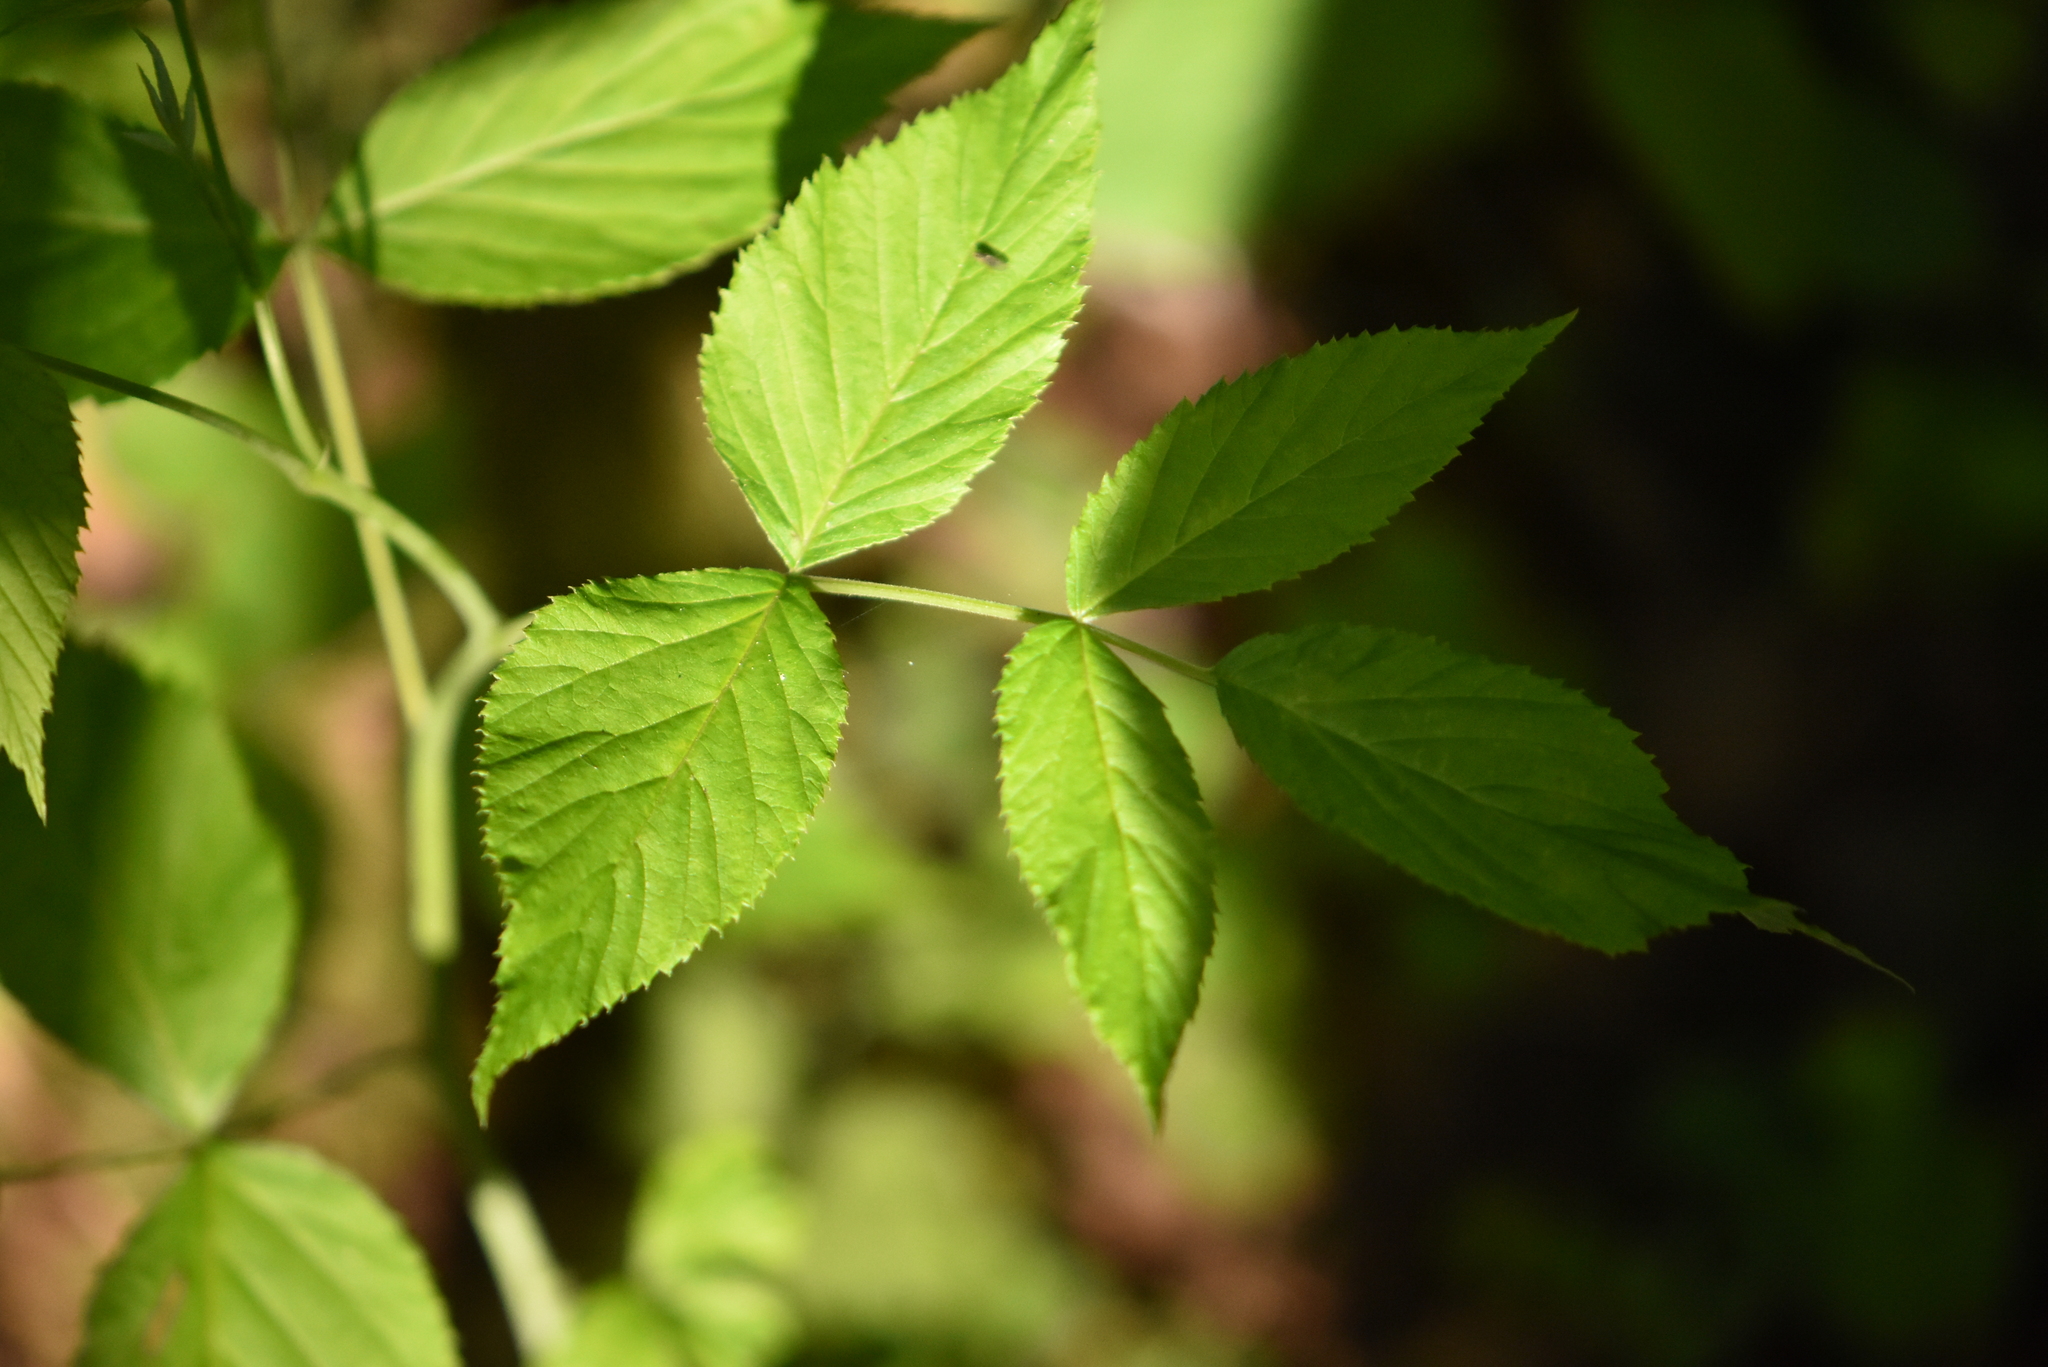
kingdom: Plantae
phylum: Tracheophyta
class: Magnoliopsida
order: Rosales
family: Rosaceae
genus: Rubus
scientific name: Rubus idaeus
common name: Raspberry
